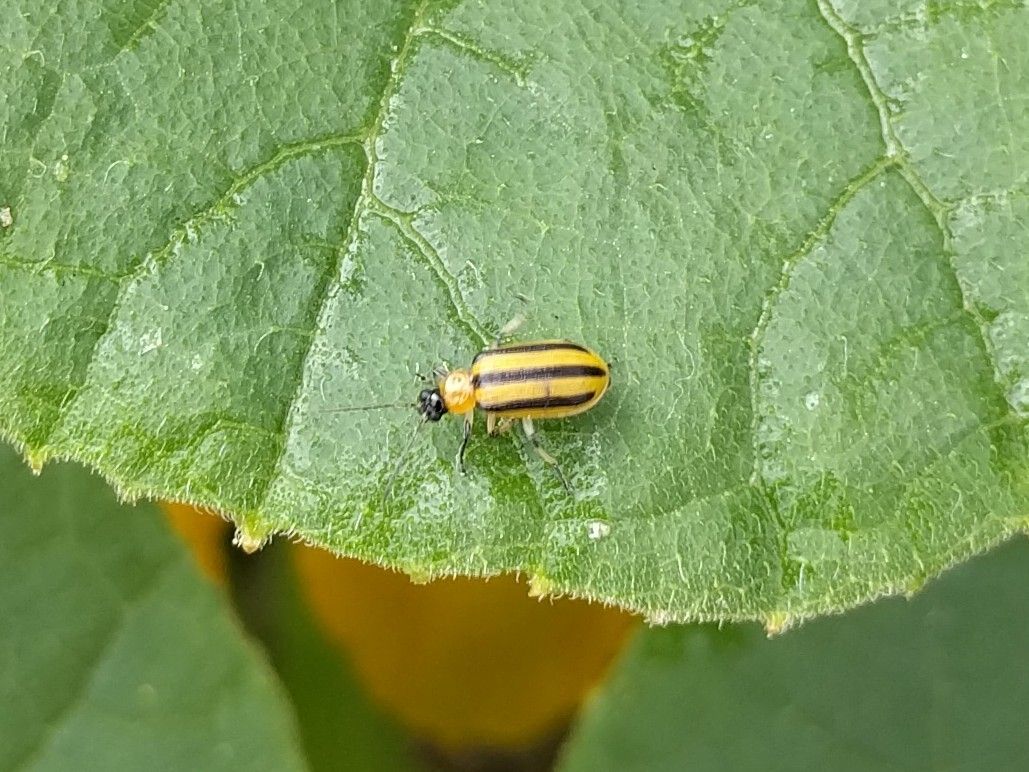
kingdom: Animalia
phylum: Arthropoda
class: Insecta
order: Coleoptera
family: Chrysomelidae
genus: Acalymma
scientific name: Acalymma vittatum
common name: Striped cucumber beetle
